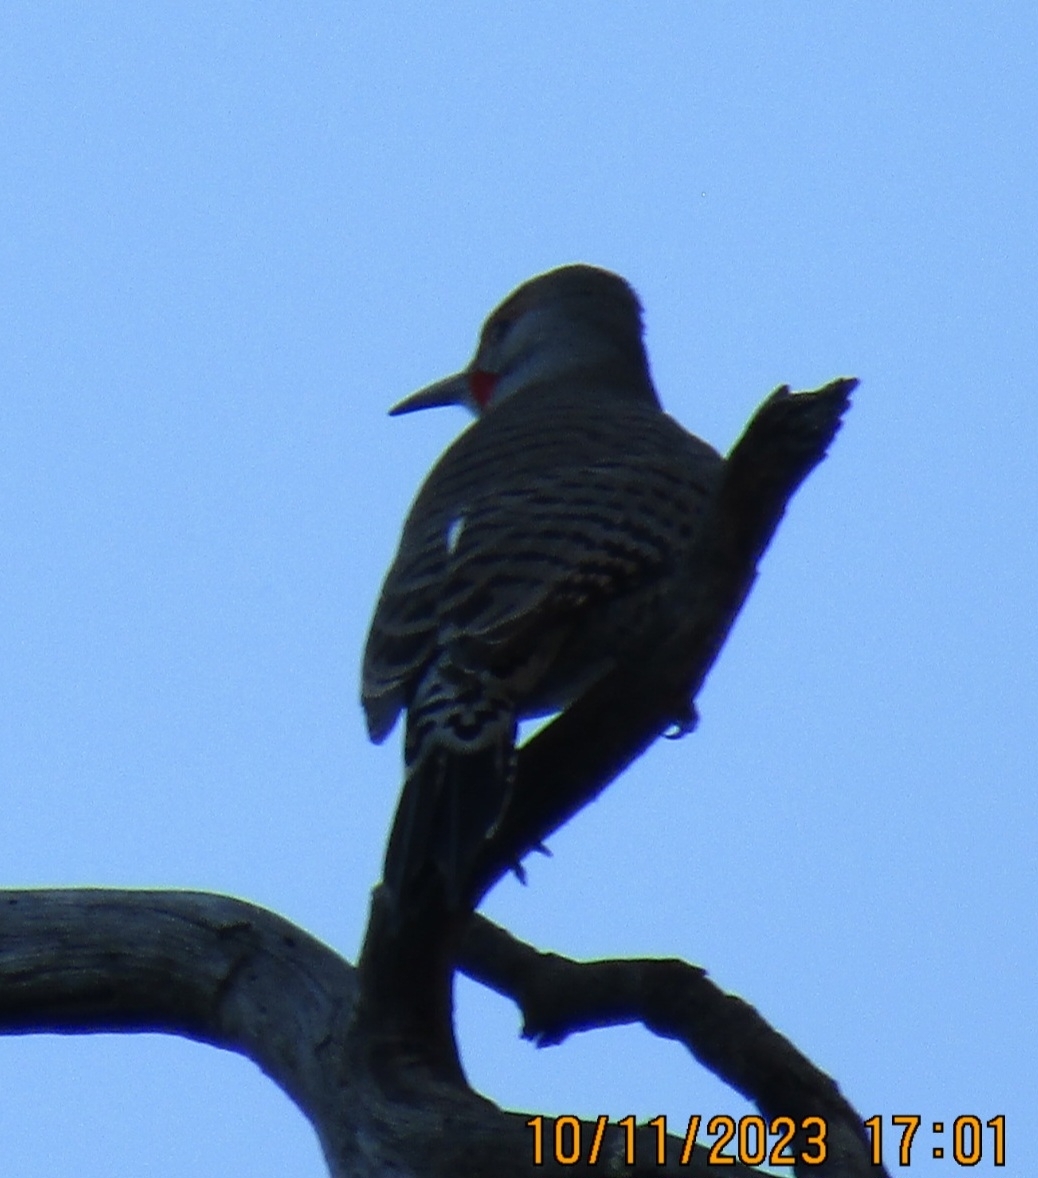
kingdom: Animalia
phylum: Chordata
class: Aves
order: Piciformes
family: Picidae
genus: Colaptes
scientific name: Colaptes auratus
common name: Northern flicker
